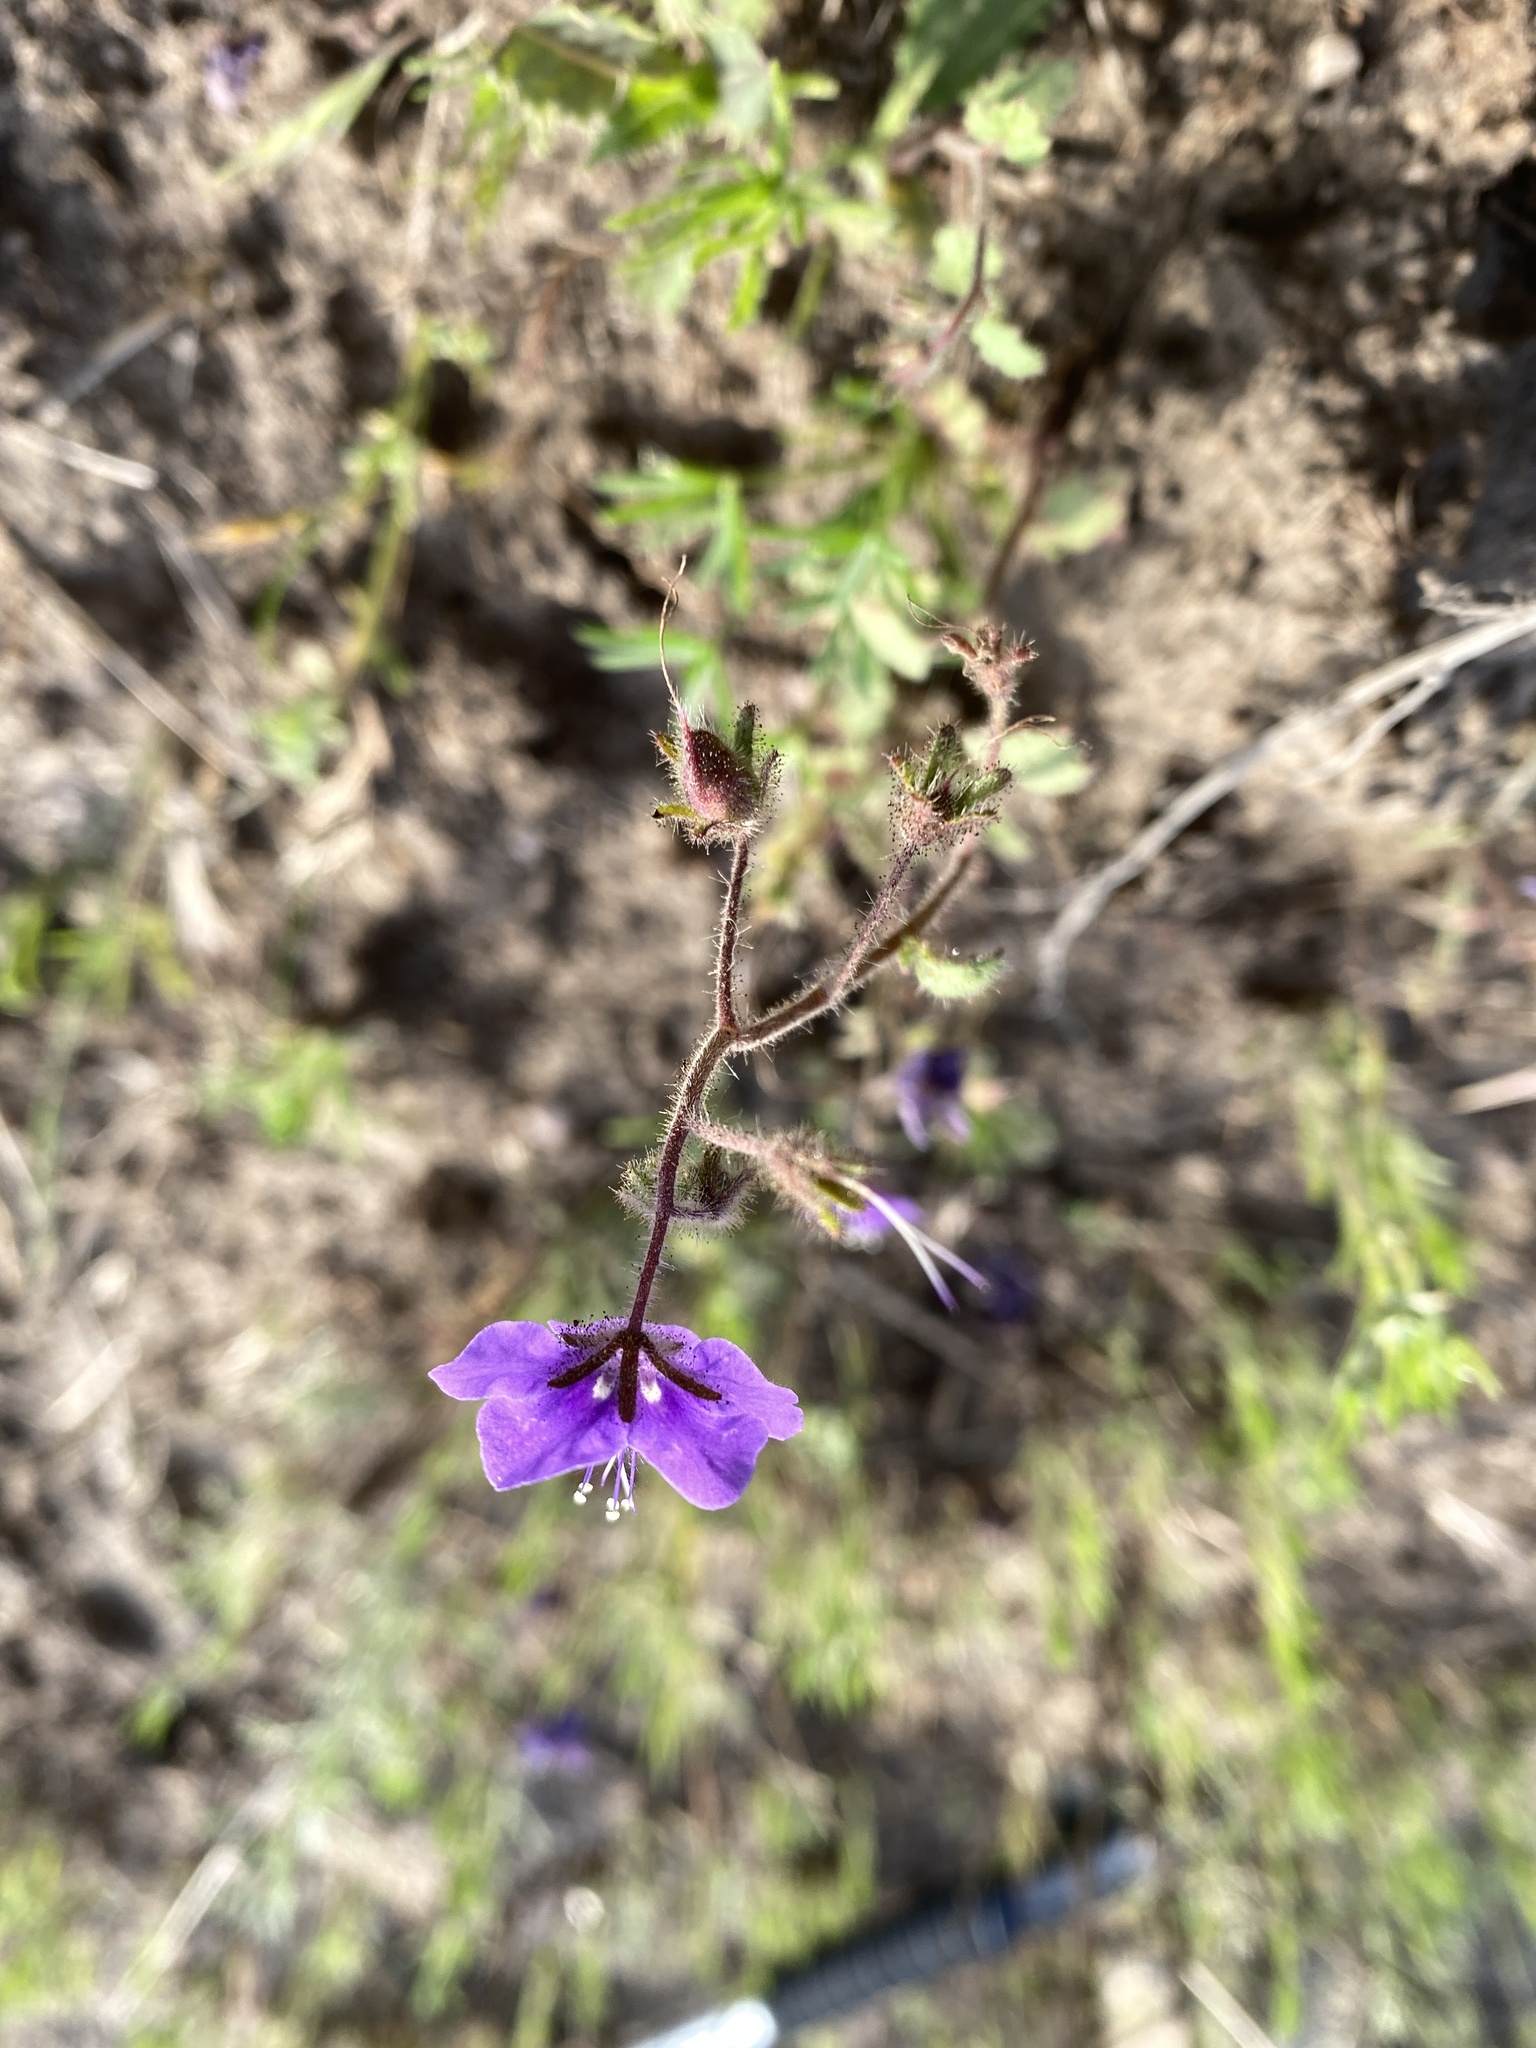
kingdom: Plantae
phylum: Tracheophyta
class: Magnoliopsida
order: Boraginales
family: Hydrophyllaceae
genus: Phacelia
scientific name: Phacelia parryi
